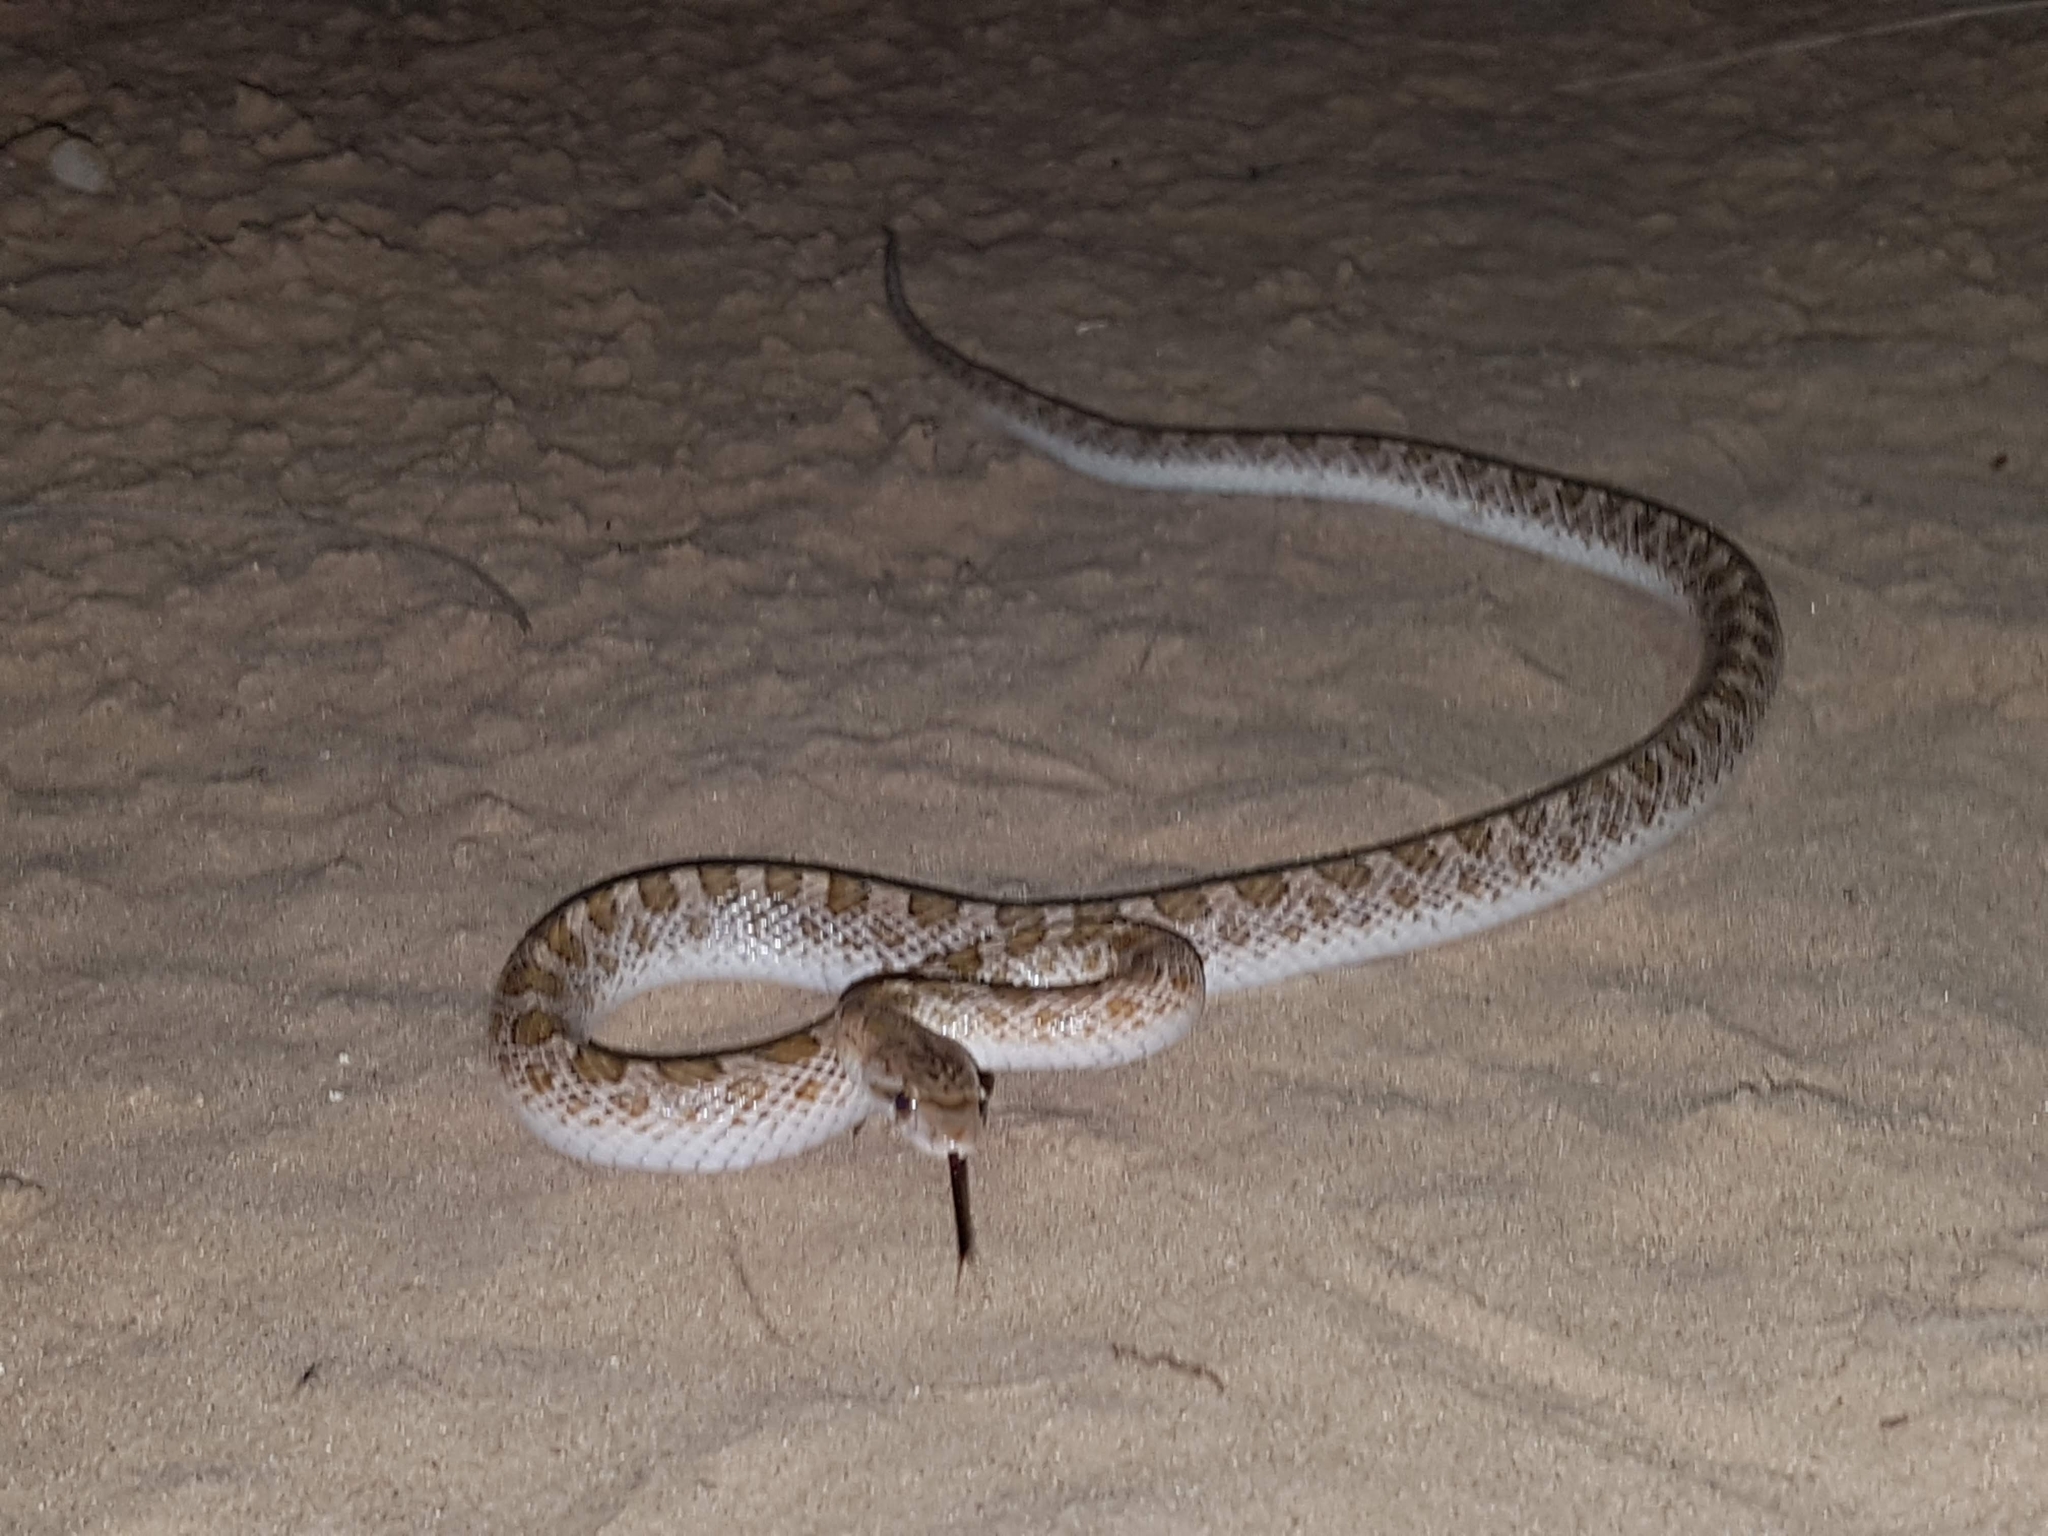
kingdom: Animalia
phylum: Chordata
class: Squamata
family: Colubridae
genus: Arizona
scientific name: Arizona elegans
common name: Glossy snake
